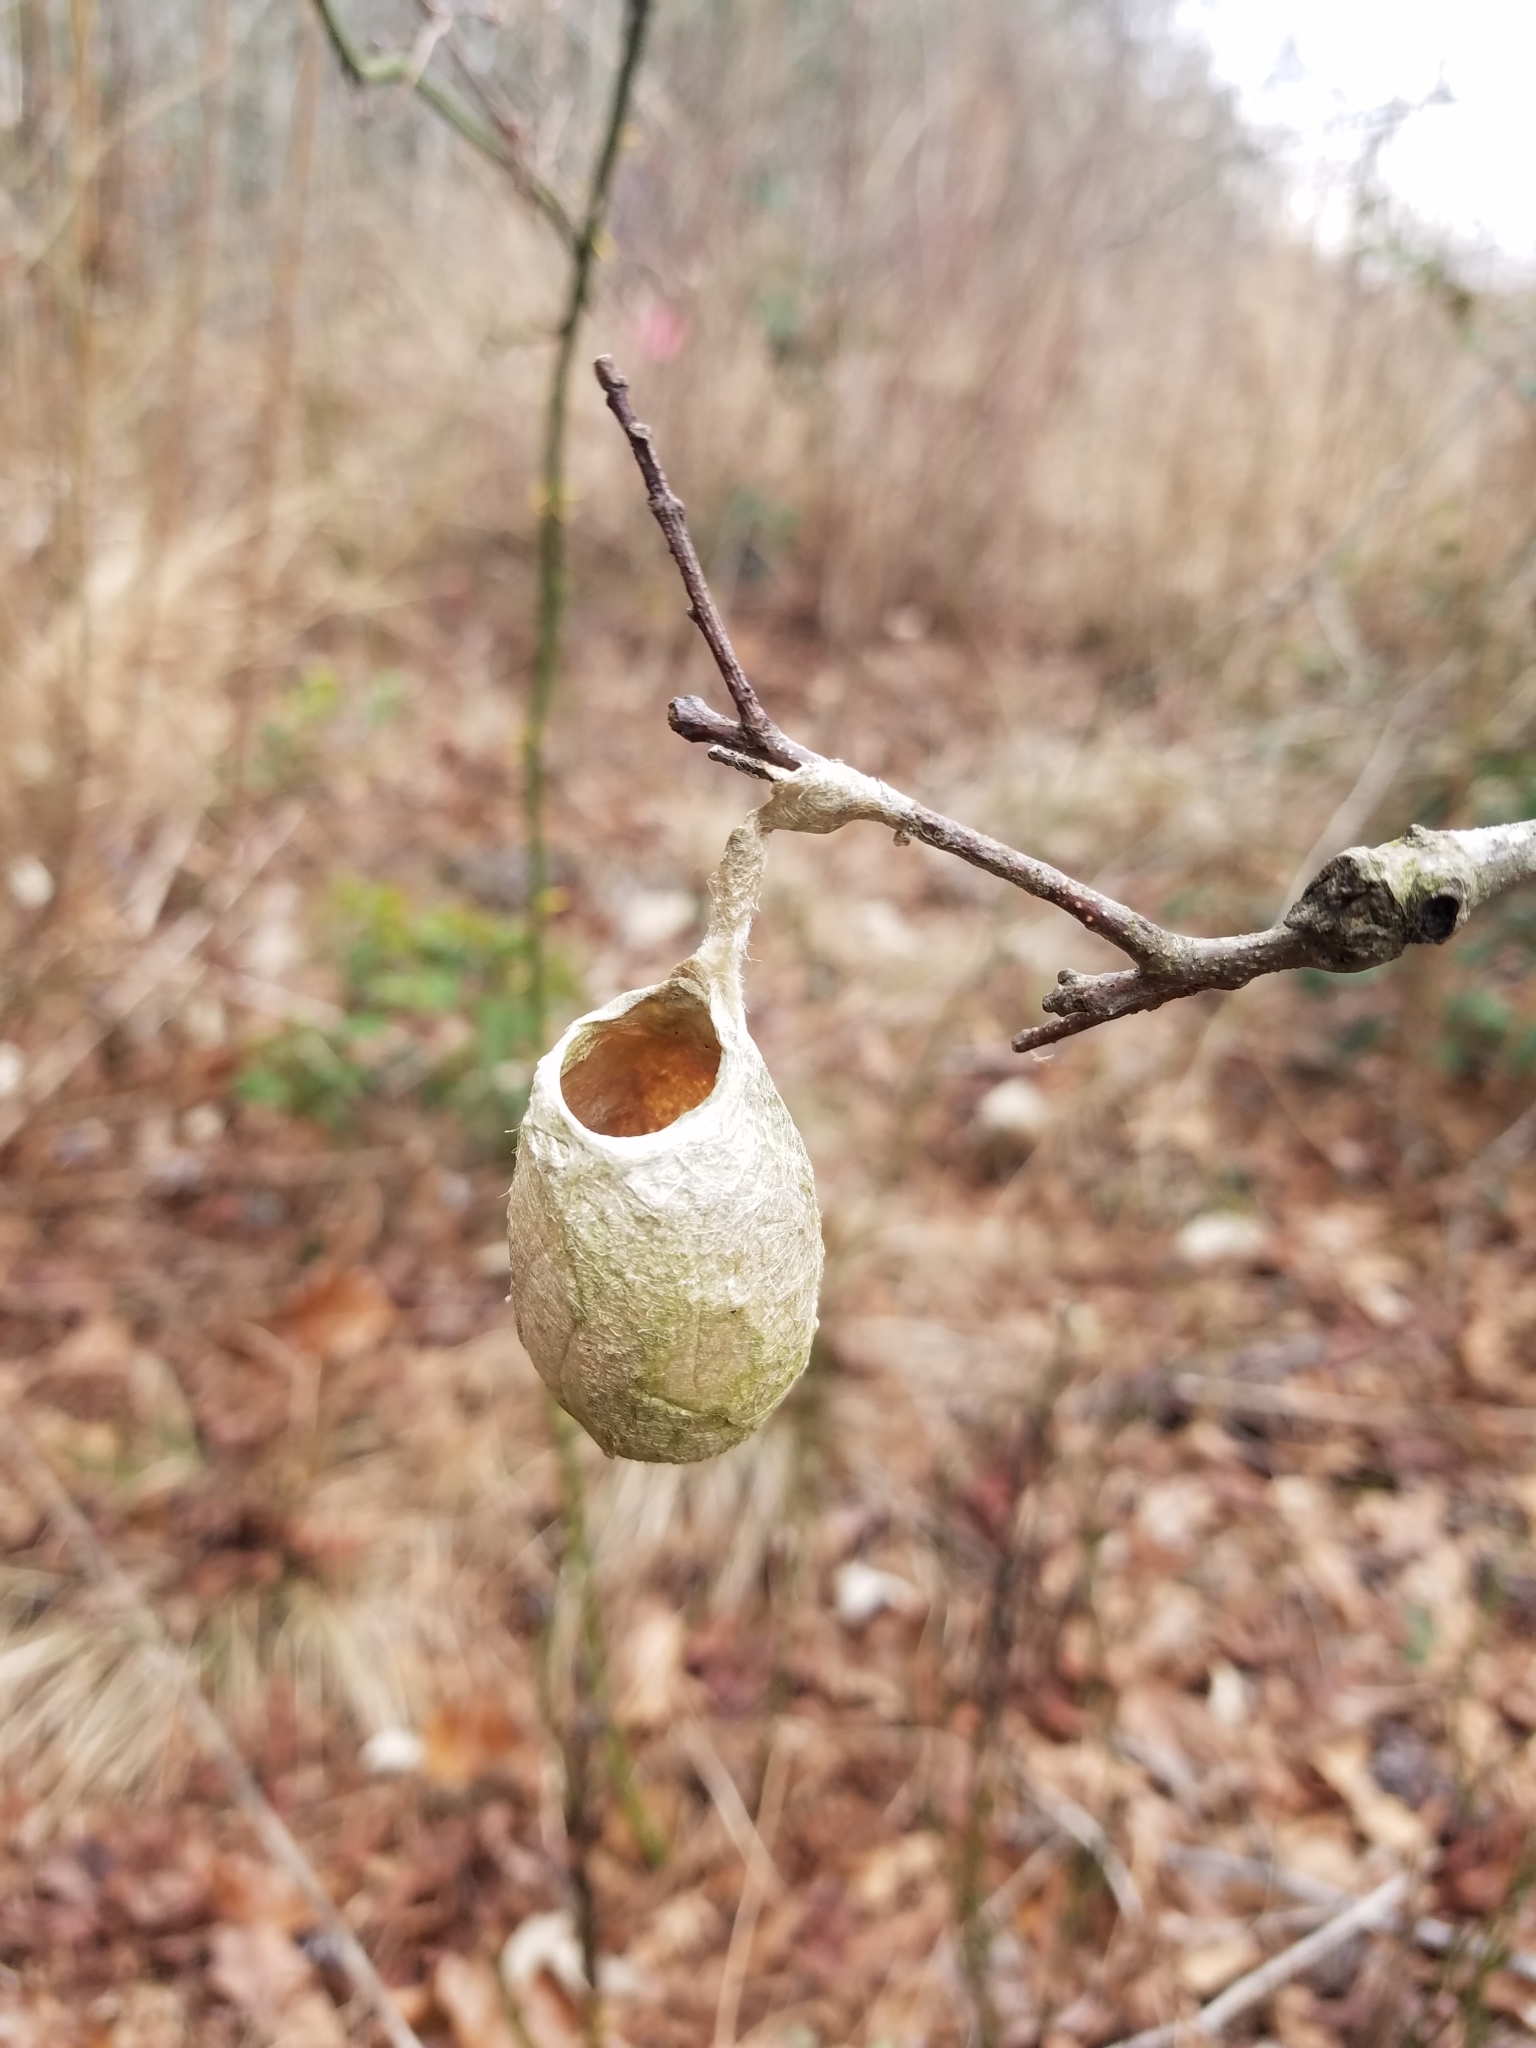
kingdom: Animalia
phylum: Arthropoda
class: Insecta
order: Lepidoptera
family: Saturniidae
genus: Antheraea
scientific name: Antheraea polyphemus
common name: Polyphemus moth
